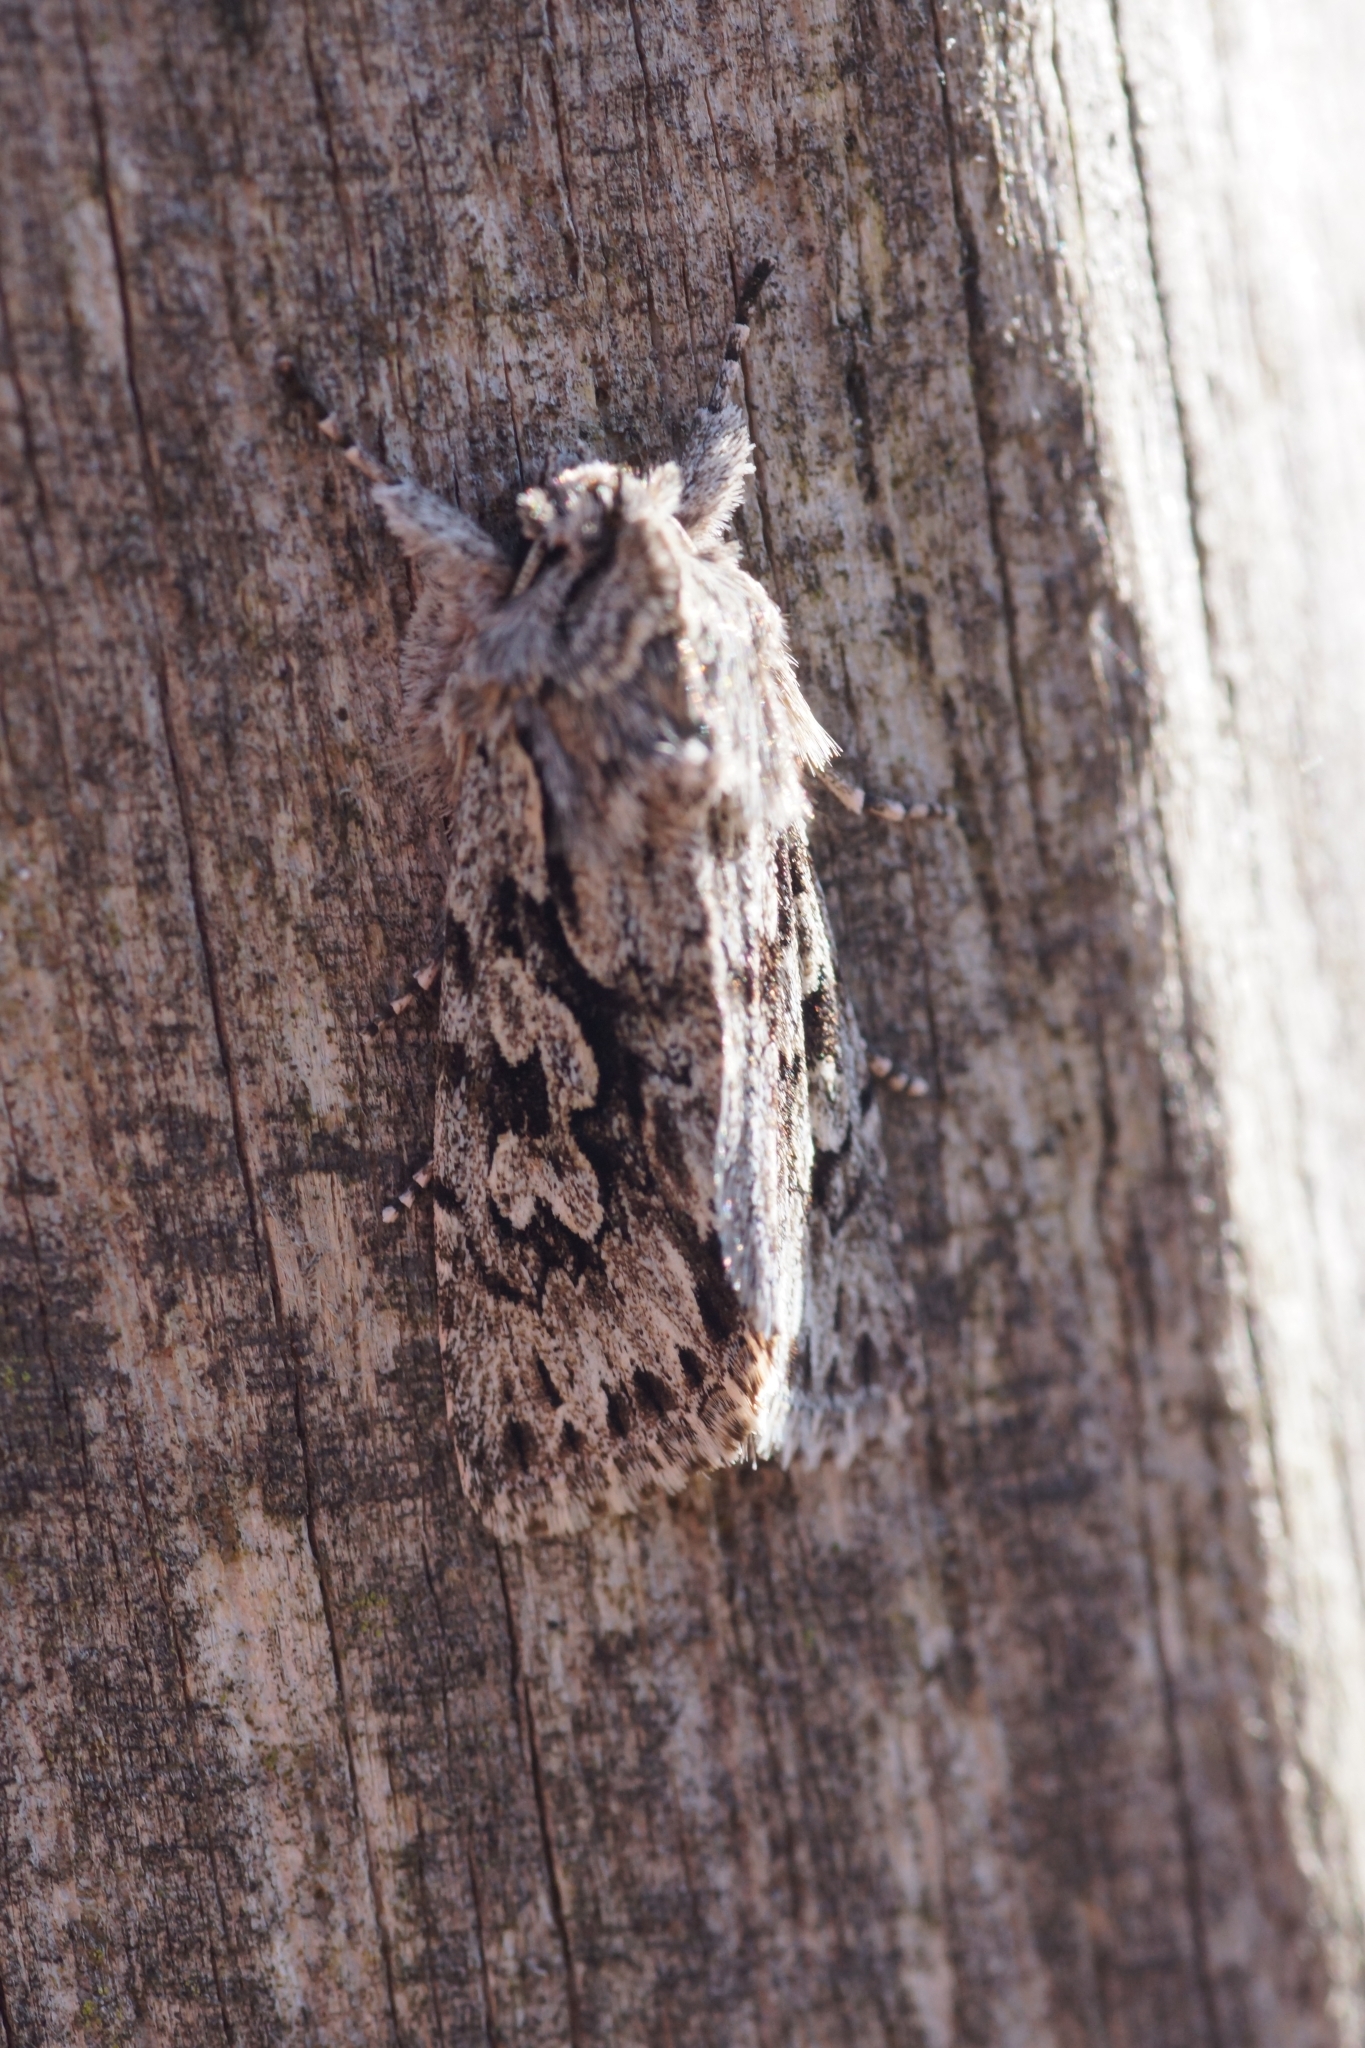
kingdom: Animalia
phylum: Arthropoda
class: Insecta
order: Lepidoptera
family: Noctuidae
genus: Xylocampa
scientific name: Xylocampa areola
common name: Early grey
